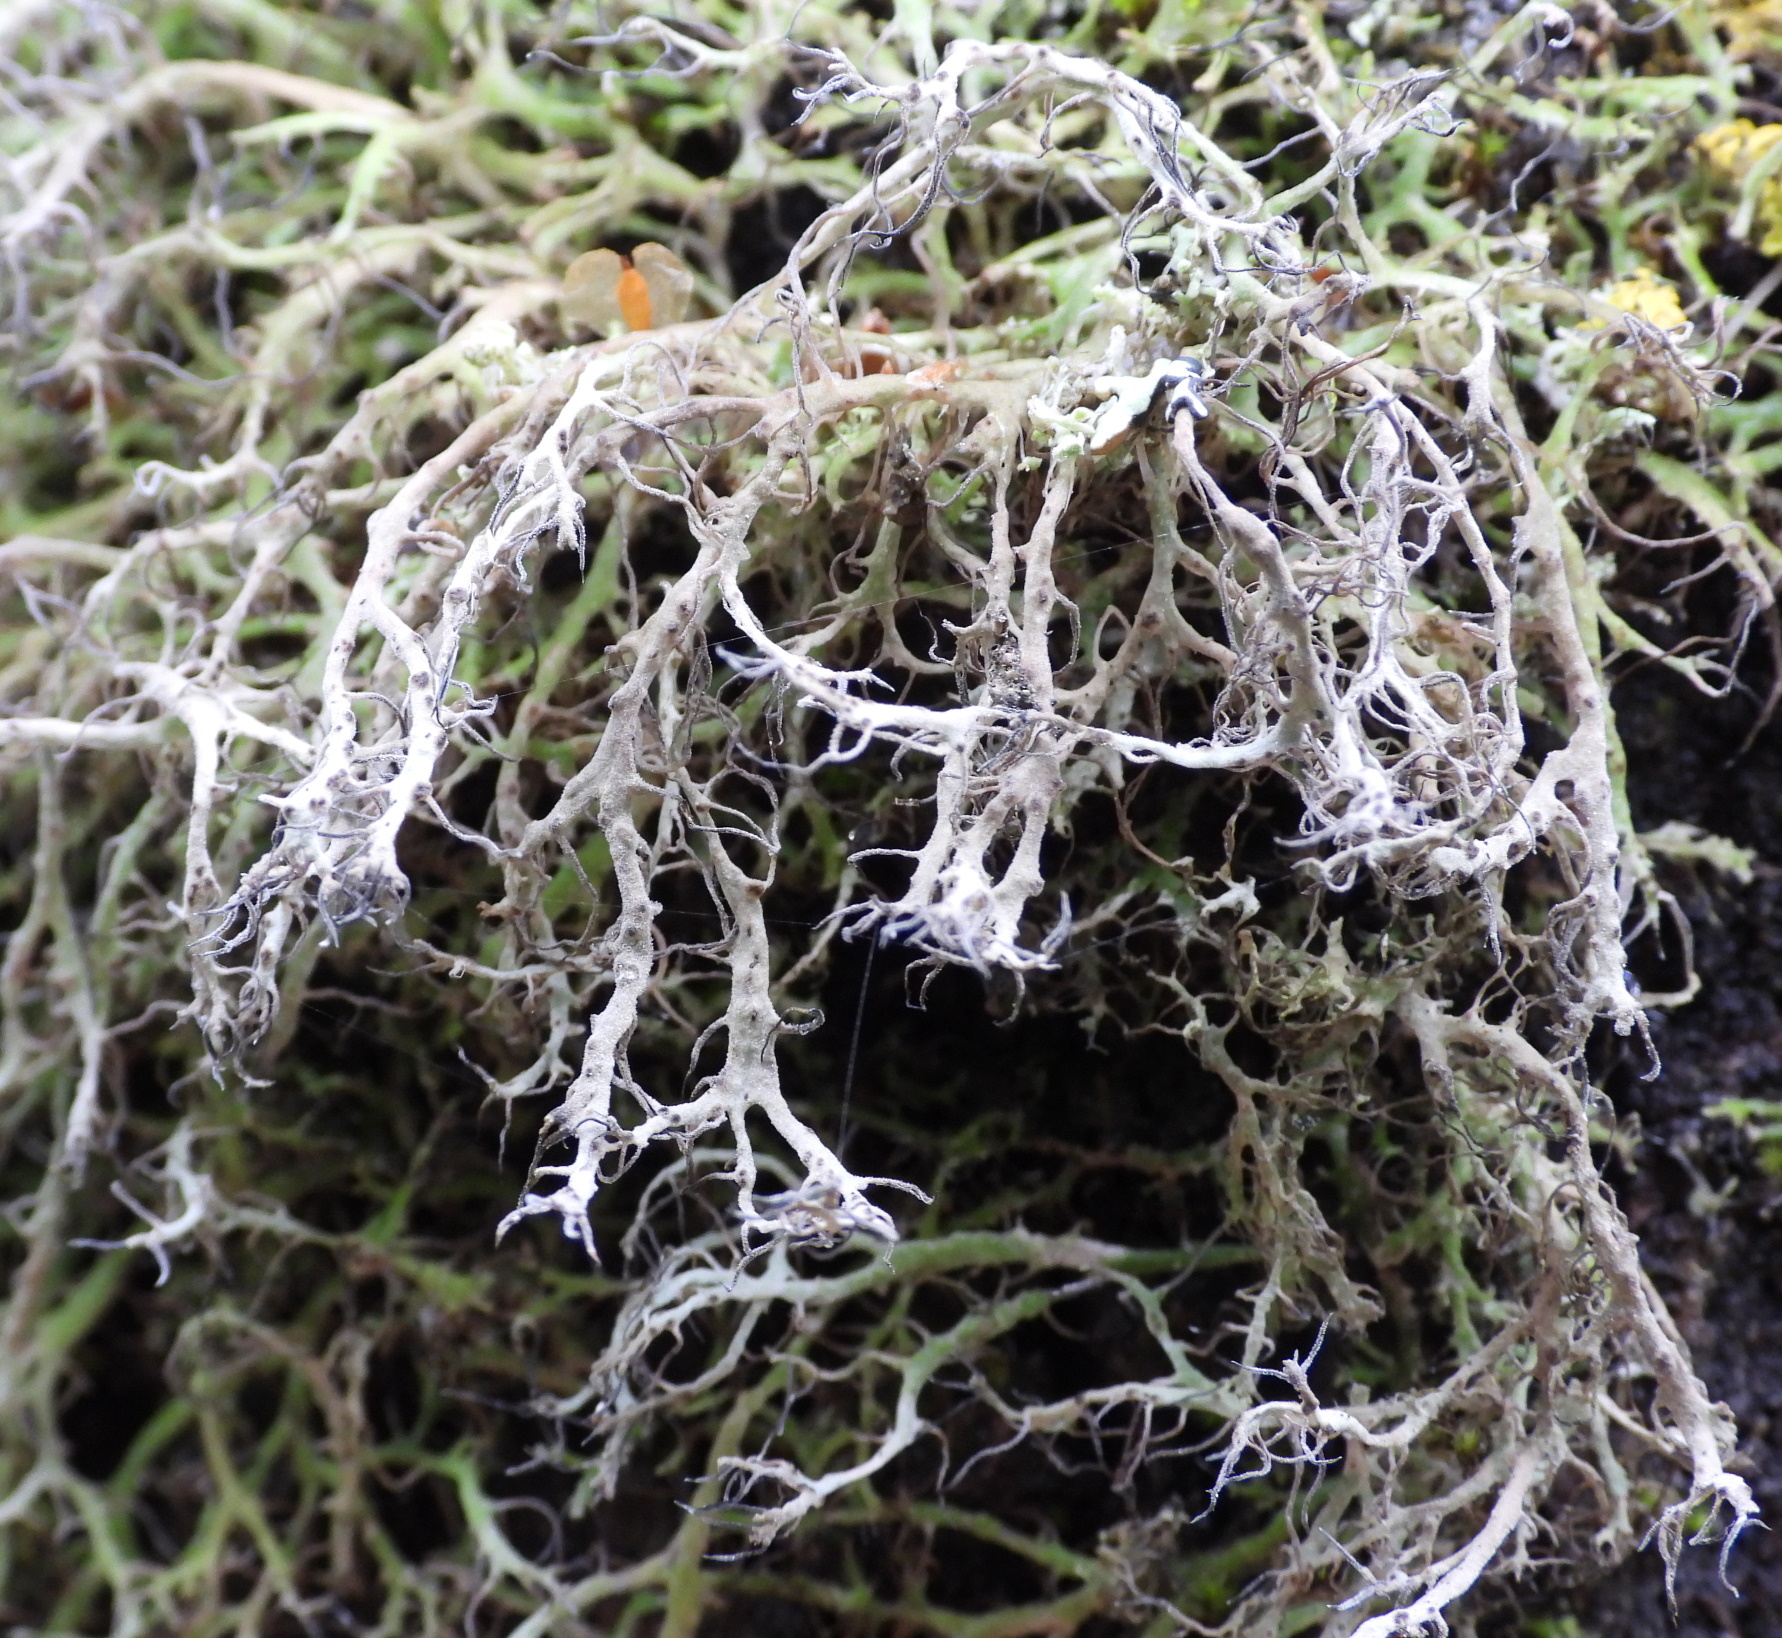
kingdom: Fungi
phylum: Ascomycota
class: Lecanoromycetes
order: Caliciales
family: Physciaceae
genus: Anaptychia
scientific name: Anaptychia ciliaris
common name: Great ciliated lichen
